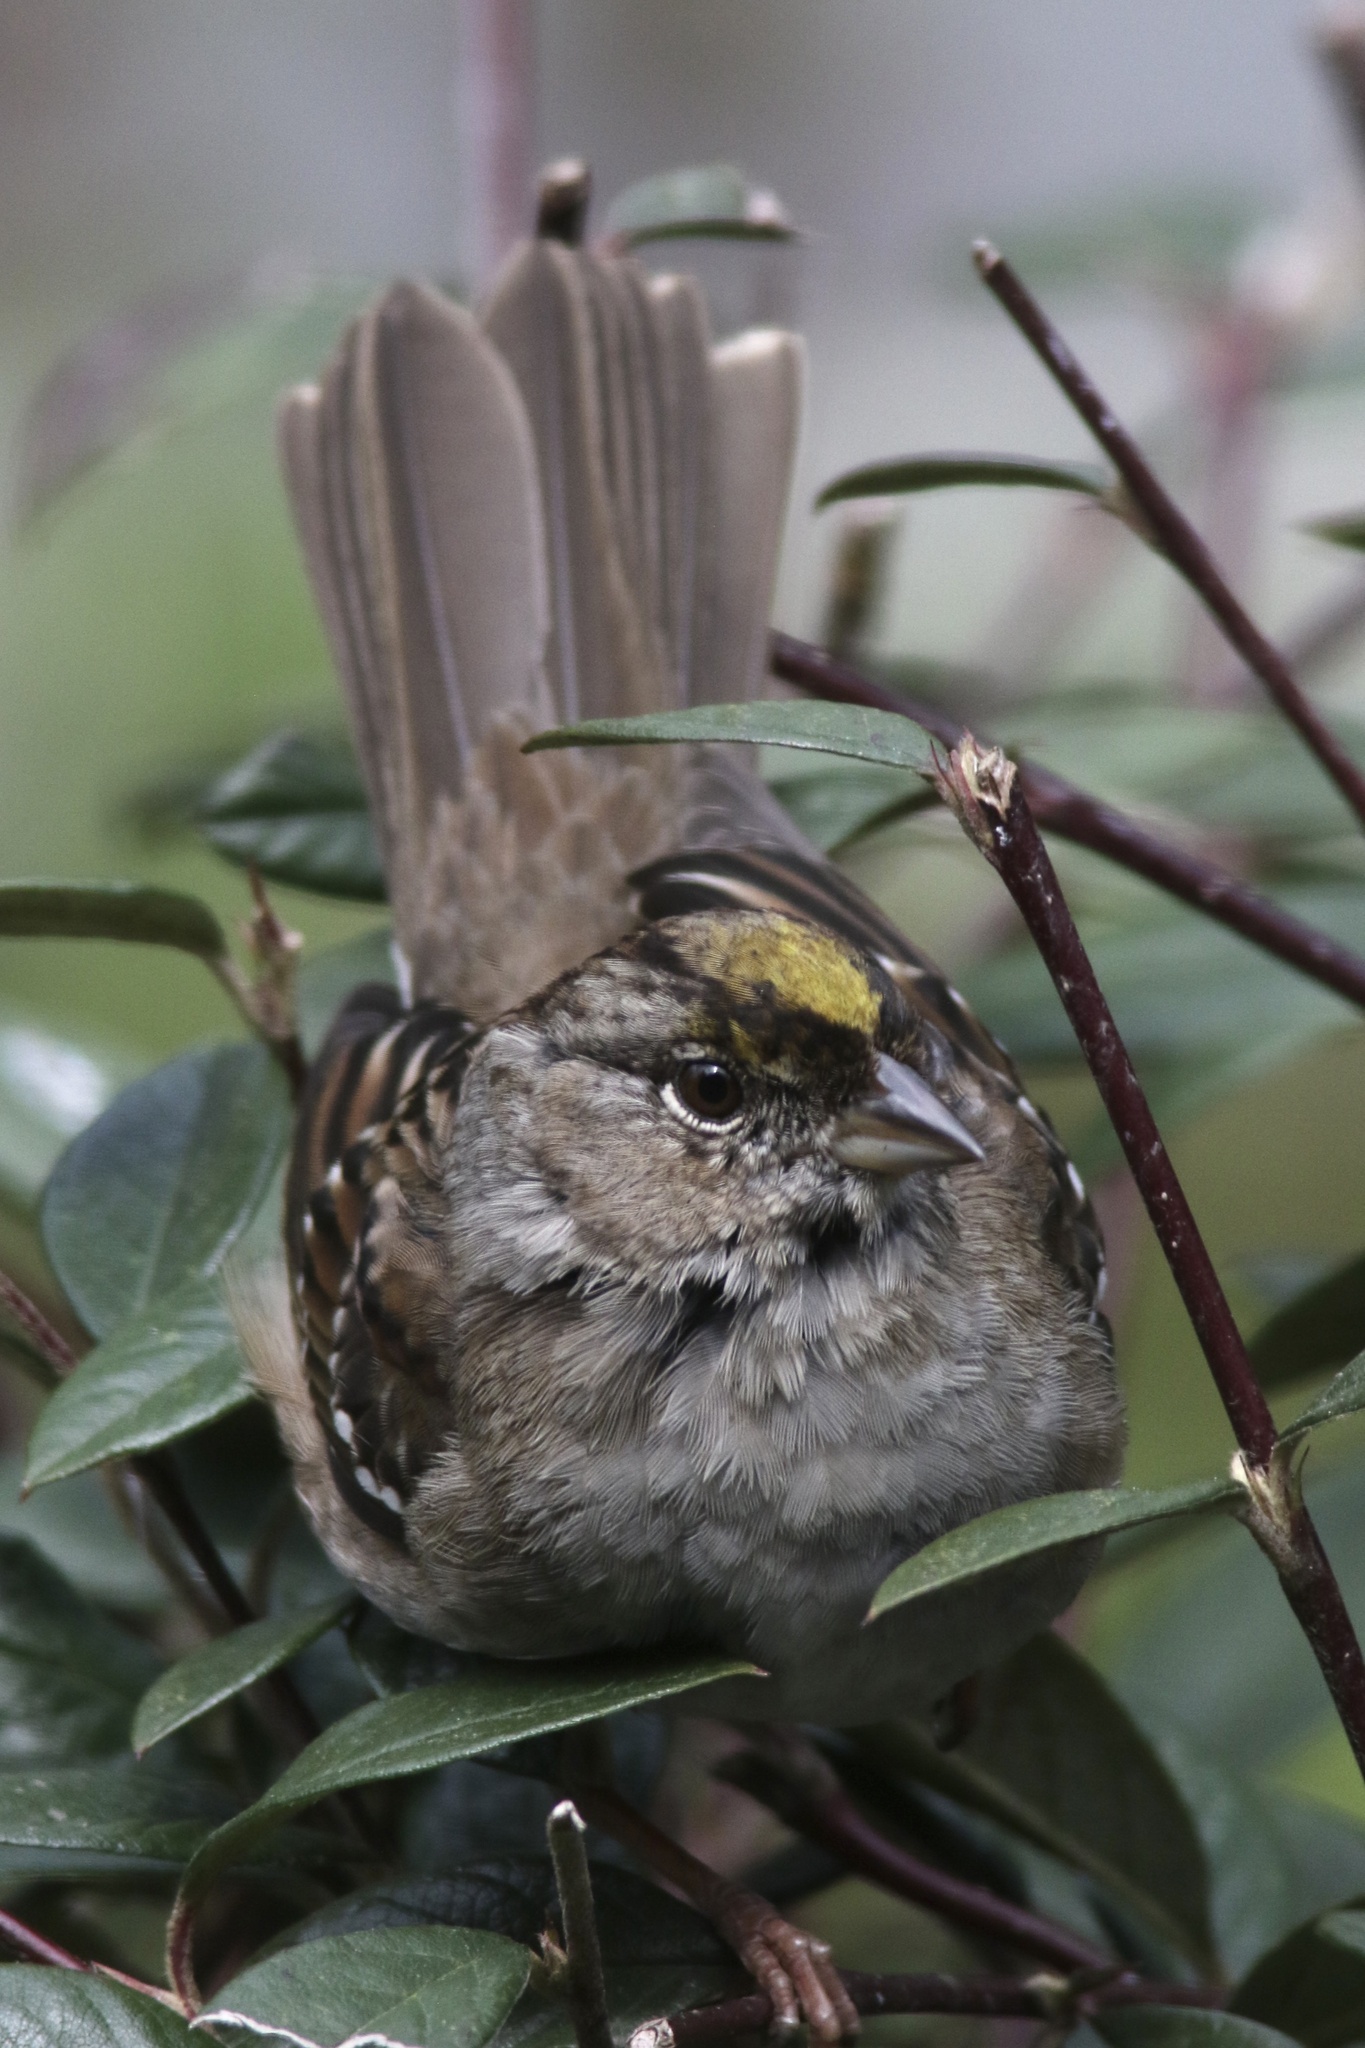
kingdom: Animalia
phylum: Chordata
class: Aves
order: Passeriformes
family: Passerellidae
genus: Zonotrichia
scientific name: Zonotrichia atricapilla
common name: Golden-crowned sparrow
